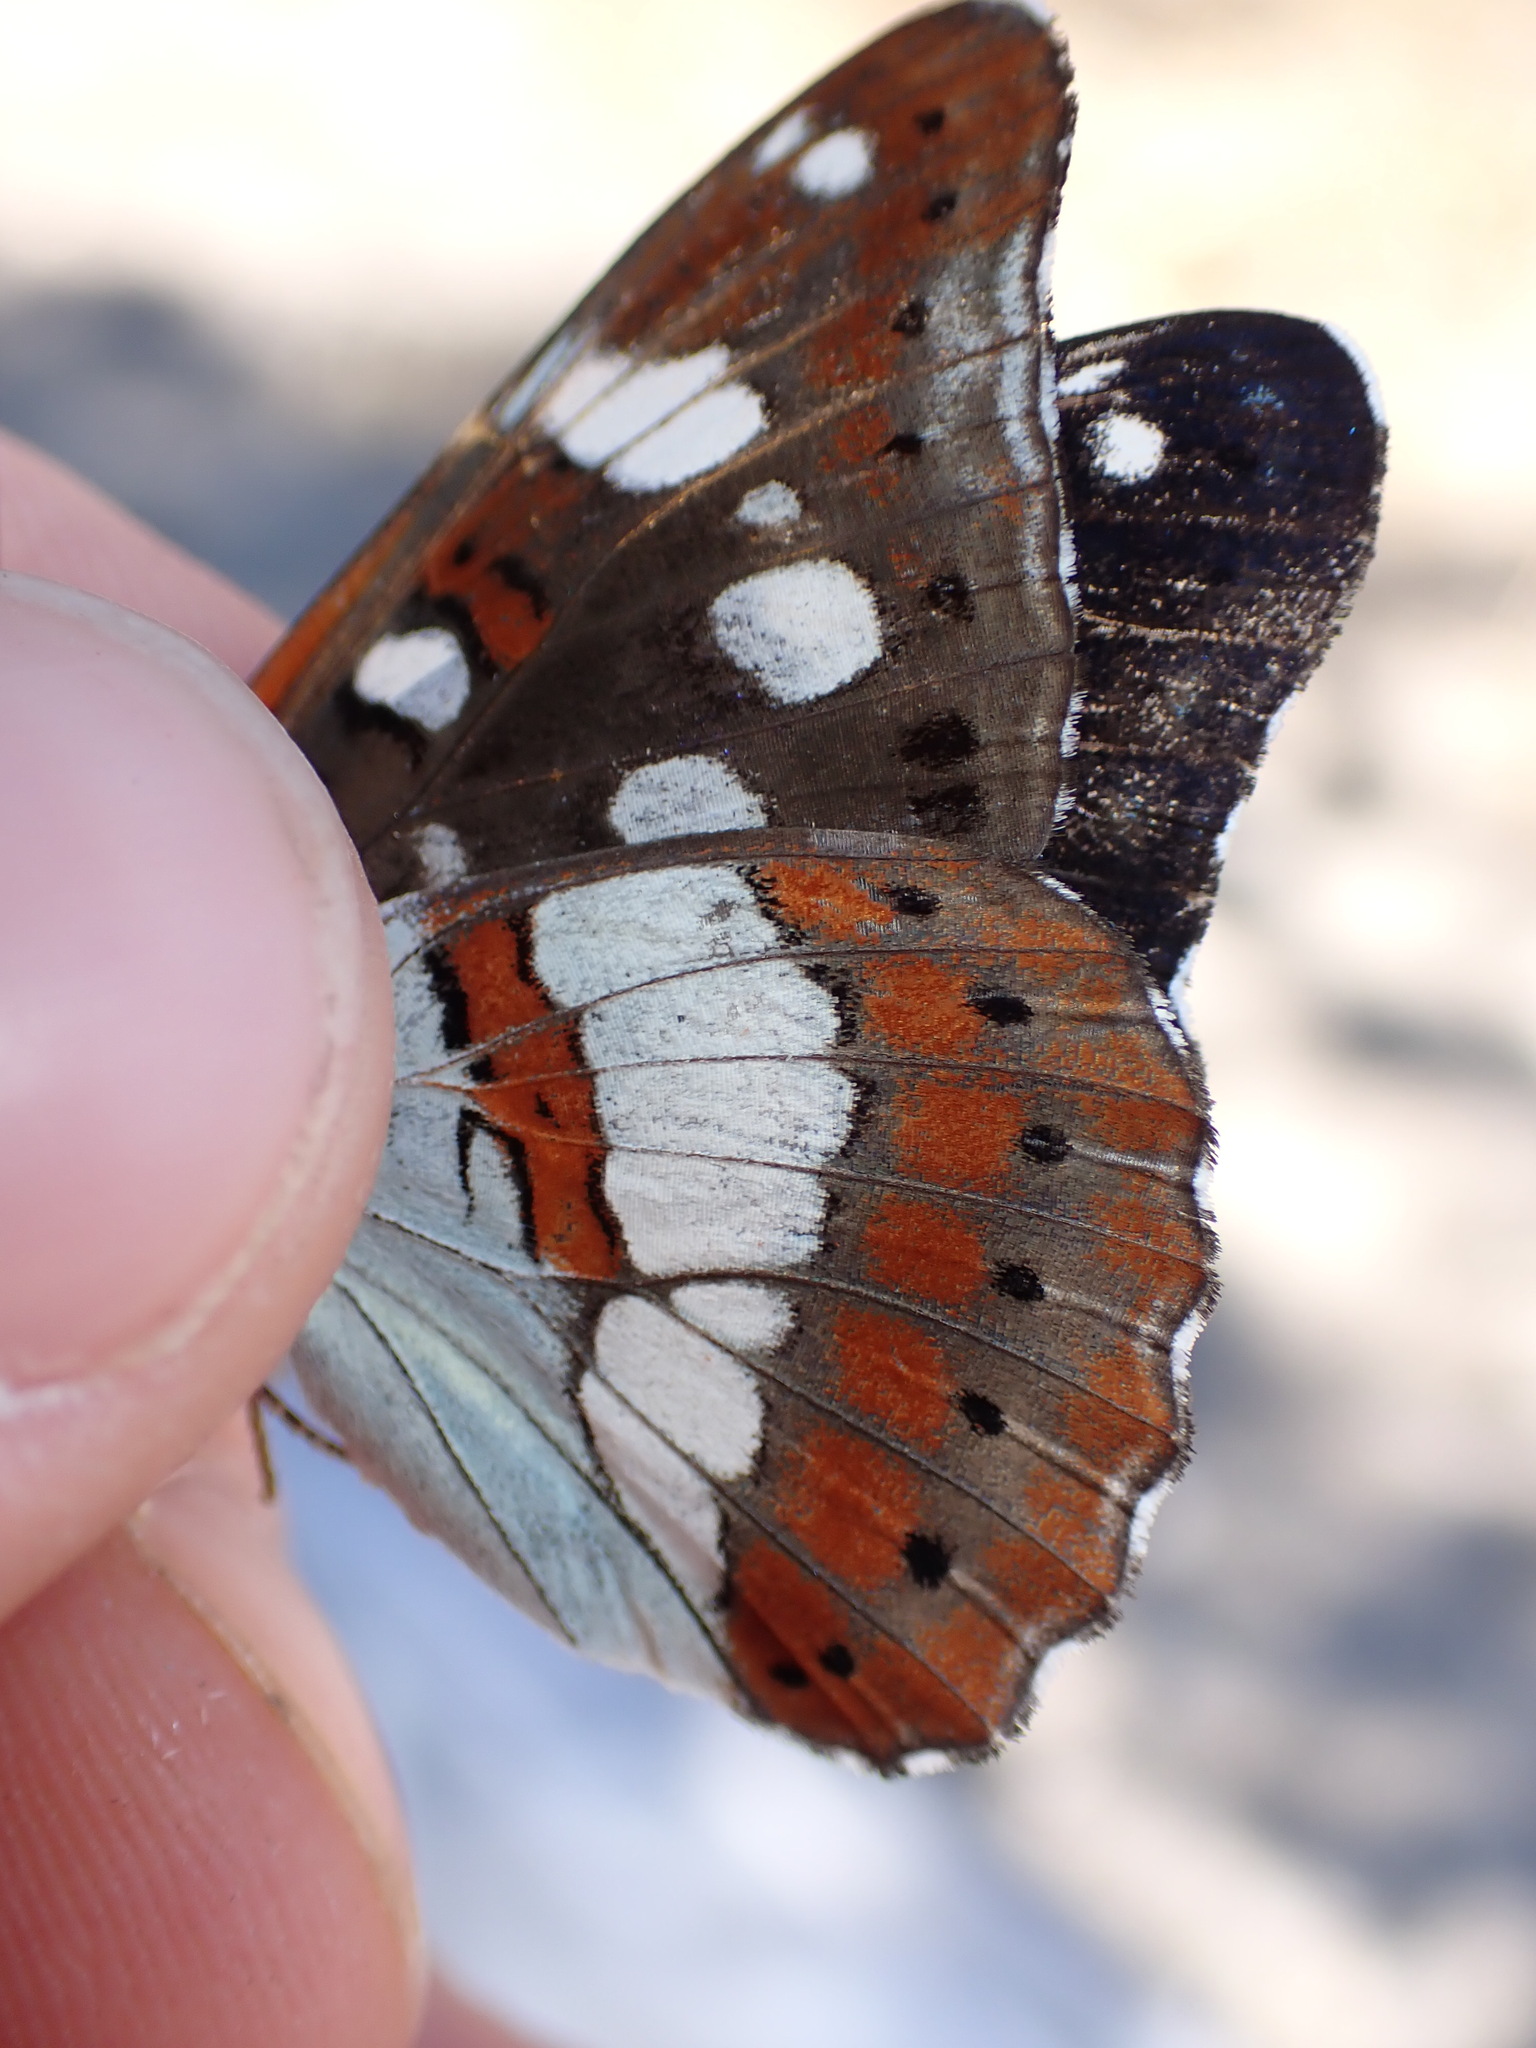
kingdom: Animalia
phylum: Arthropoda
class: Insecta
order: Lepidoptera
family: Nymphalidae
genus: Limenitis
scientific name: Limenitis reducta
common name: Southern white admiral
